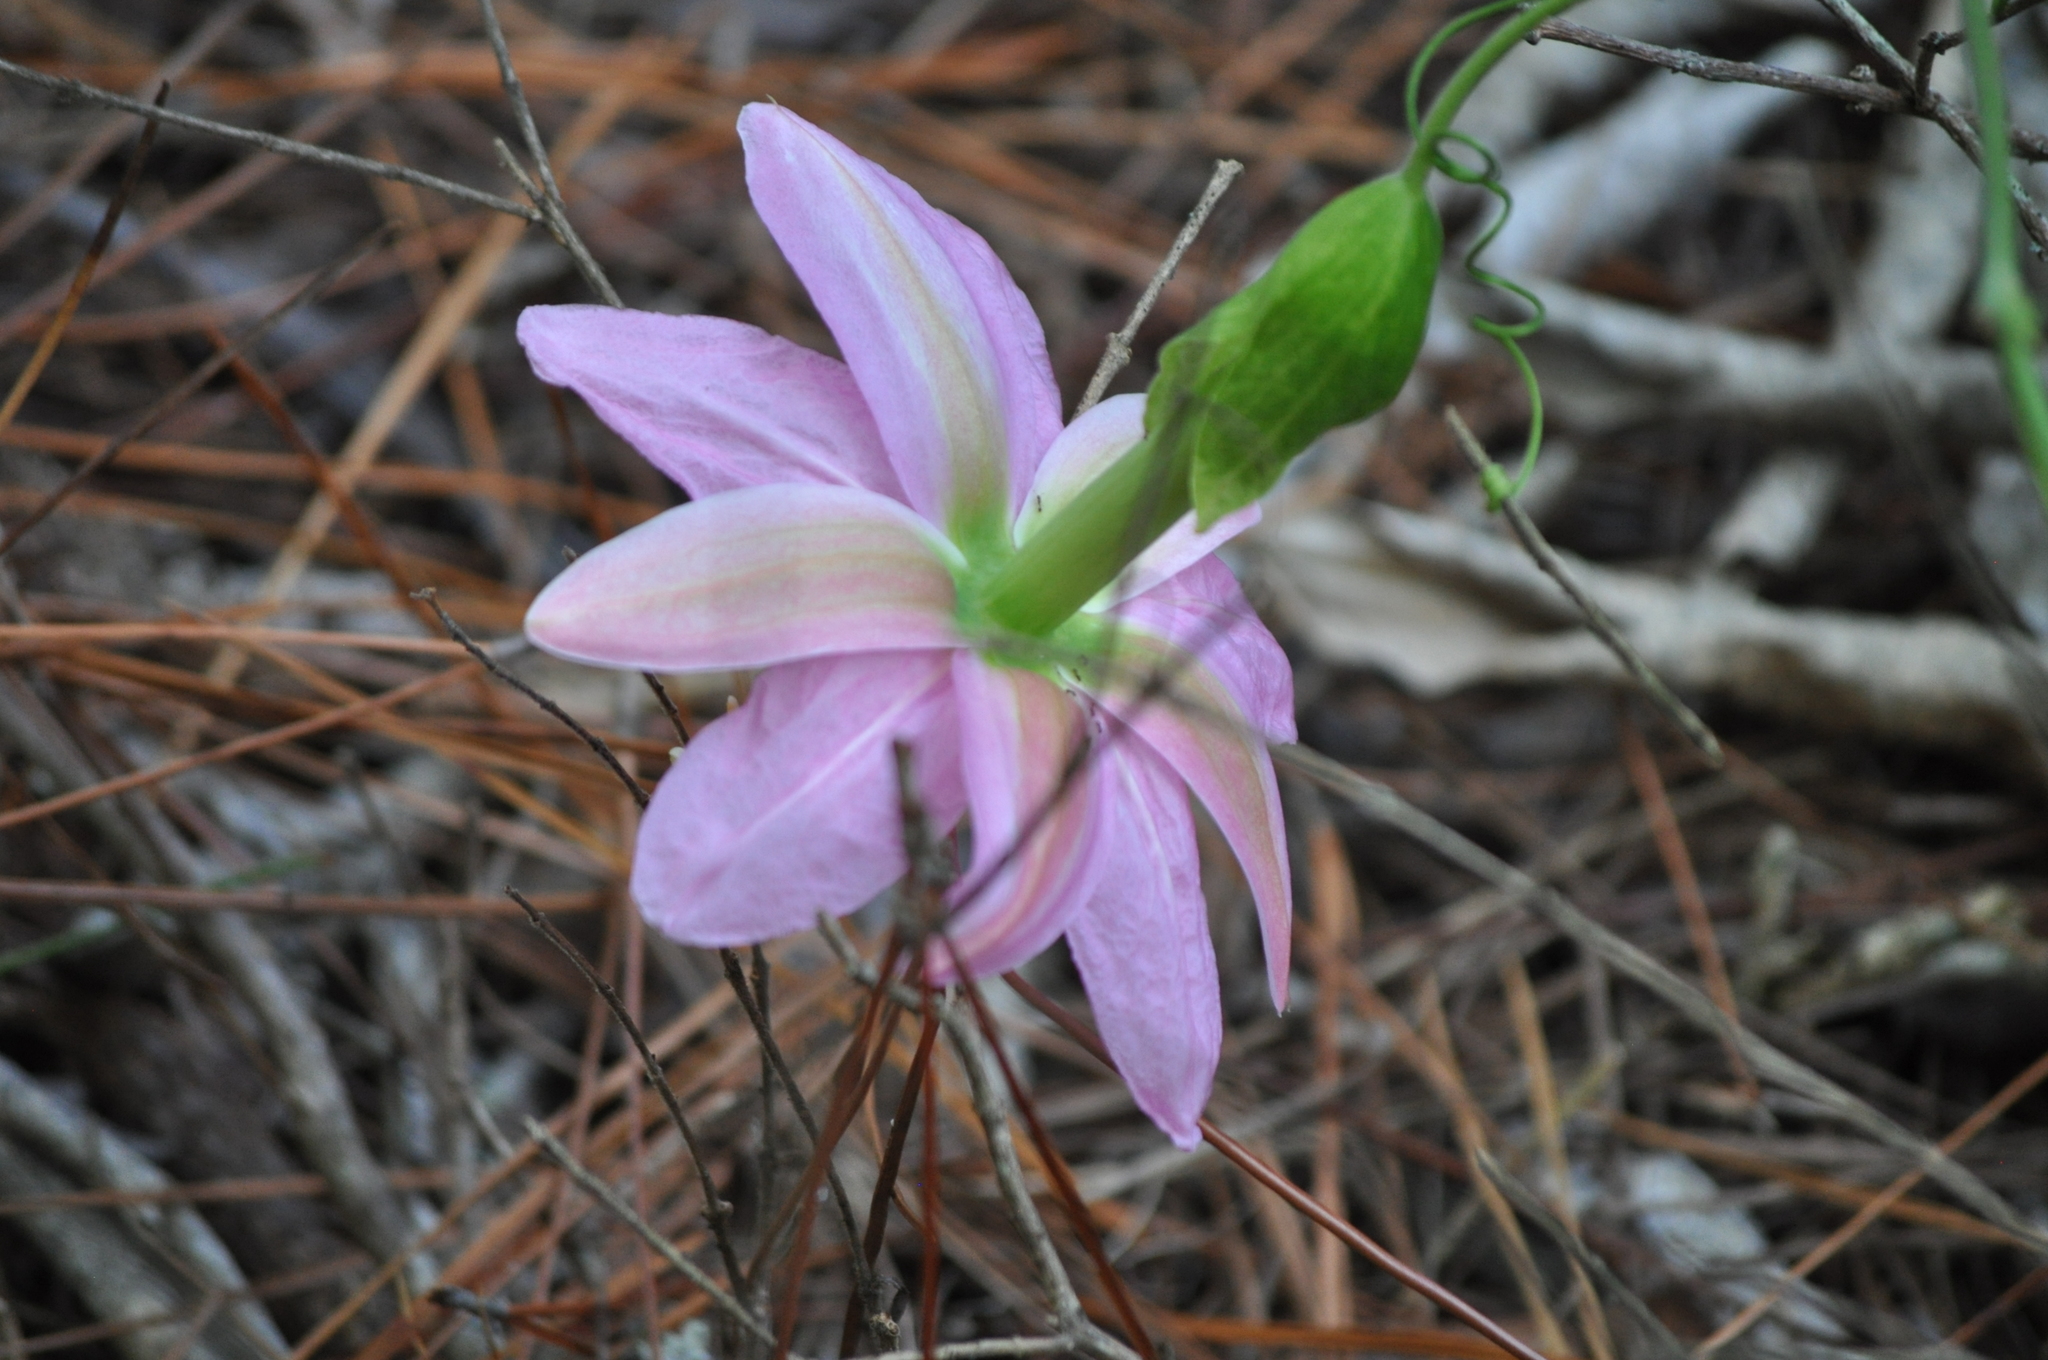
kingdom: Plantae
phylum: Tracheophyta
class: Magnoliopsida
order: Malpighiales
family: Passifloraceae
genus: Passiflora
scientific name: Passiflora tarminiana
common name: Banana poka
